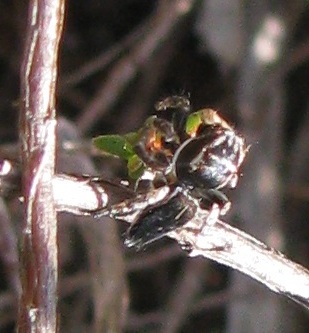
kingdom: Animalia
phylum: Arthropoda
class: Arachnida
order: Araneae
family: Salticidae
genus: Maratus
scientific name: Maratus proszynskii
